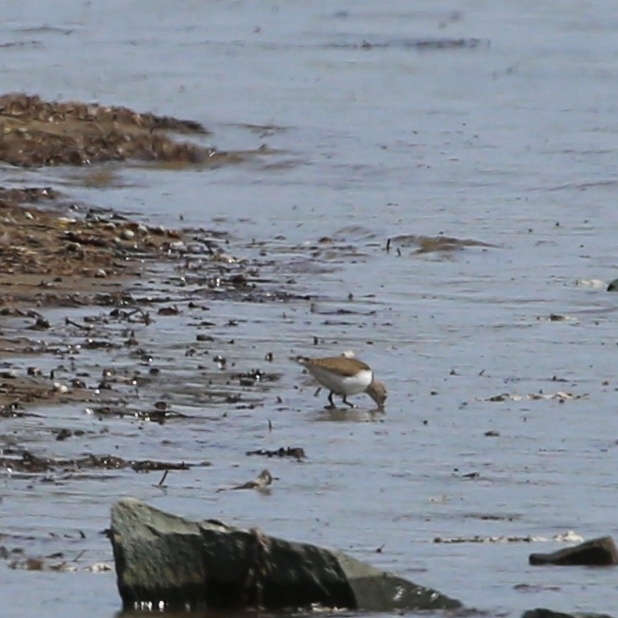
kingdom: Animalia
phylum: Chordata
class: Aves
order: Charadriiformes
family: Scolopacidae
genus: Actitis
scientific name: Actitis hypoleucos
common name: Common sandpiper
